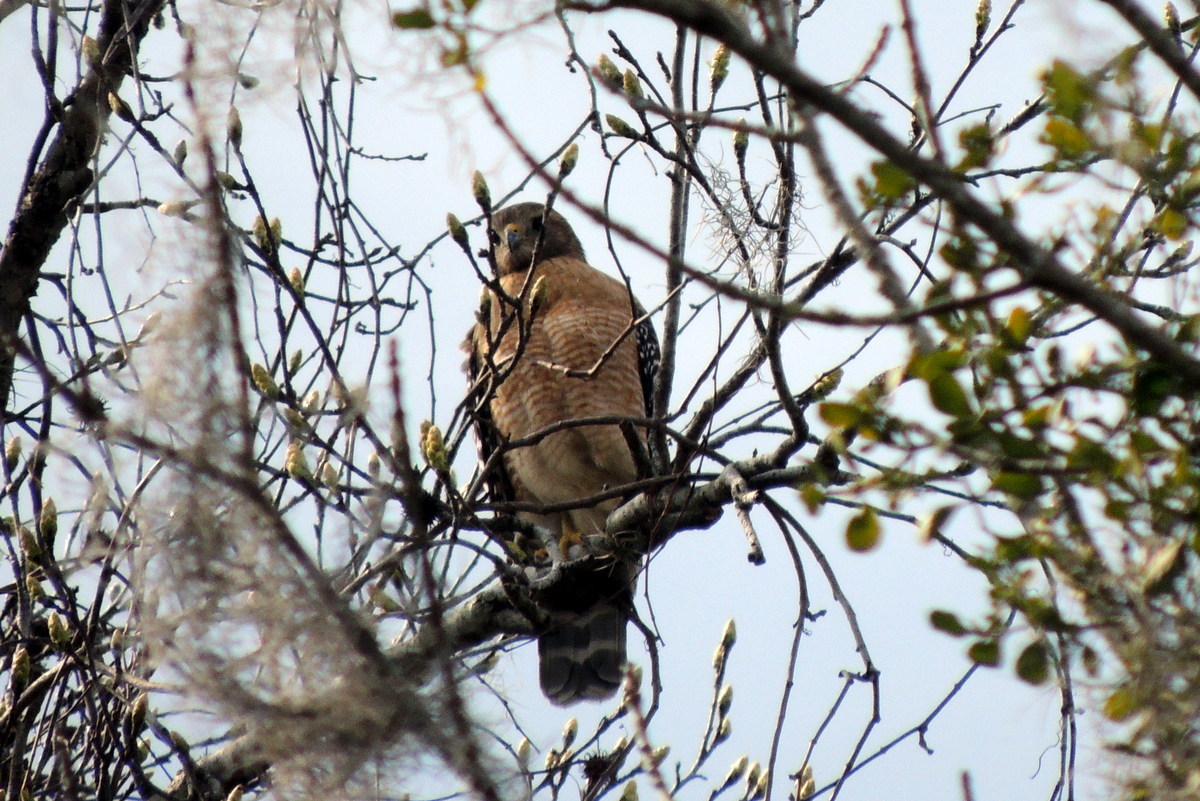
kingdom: Animalia
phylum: Chordata
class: Aves
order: Accipitriformes
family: Accipitridae
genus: Buteo
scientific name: Buteo lineatus
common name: Red-shouldered hawk
